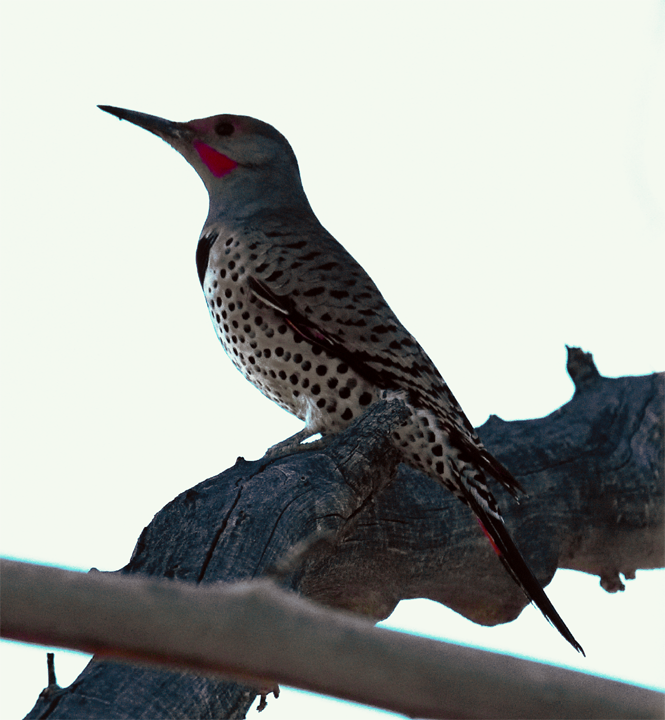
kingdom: Animalia
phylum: Chordata
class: Aves
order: Piciformes
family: Picidae
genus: Colaptes
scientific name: Colaptes auratus
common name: Northern flicker
